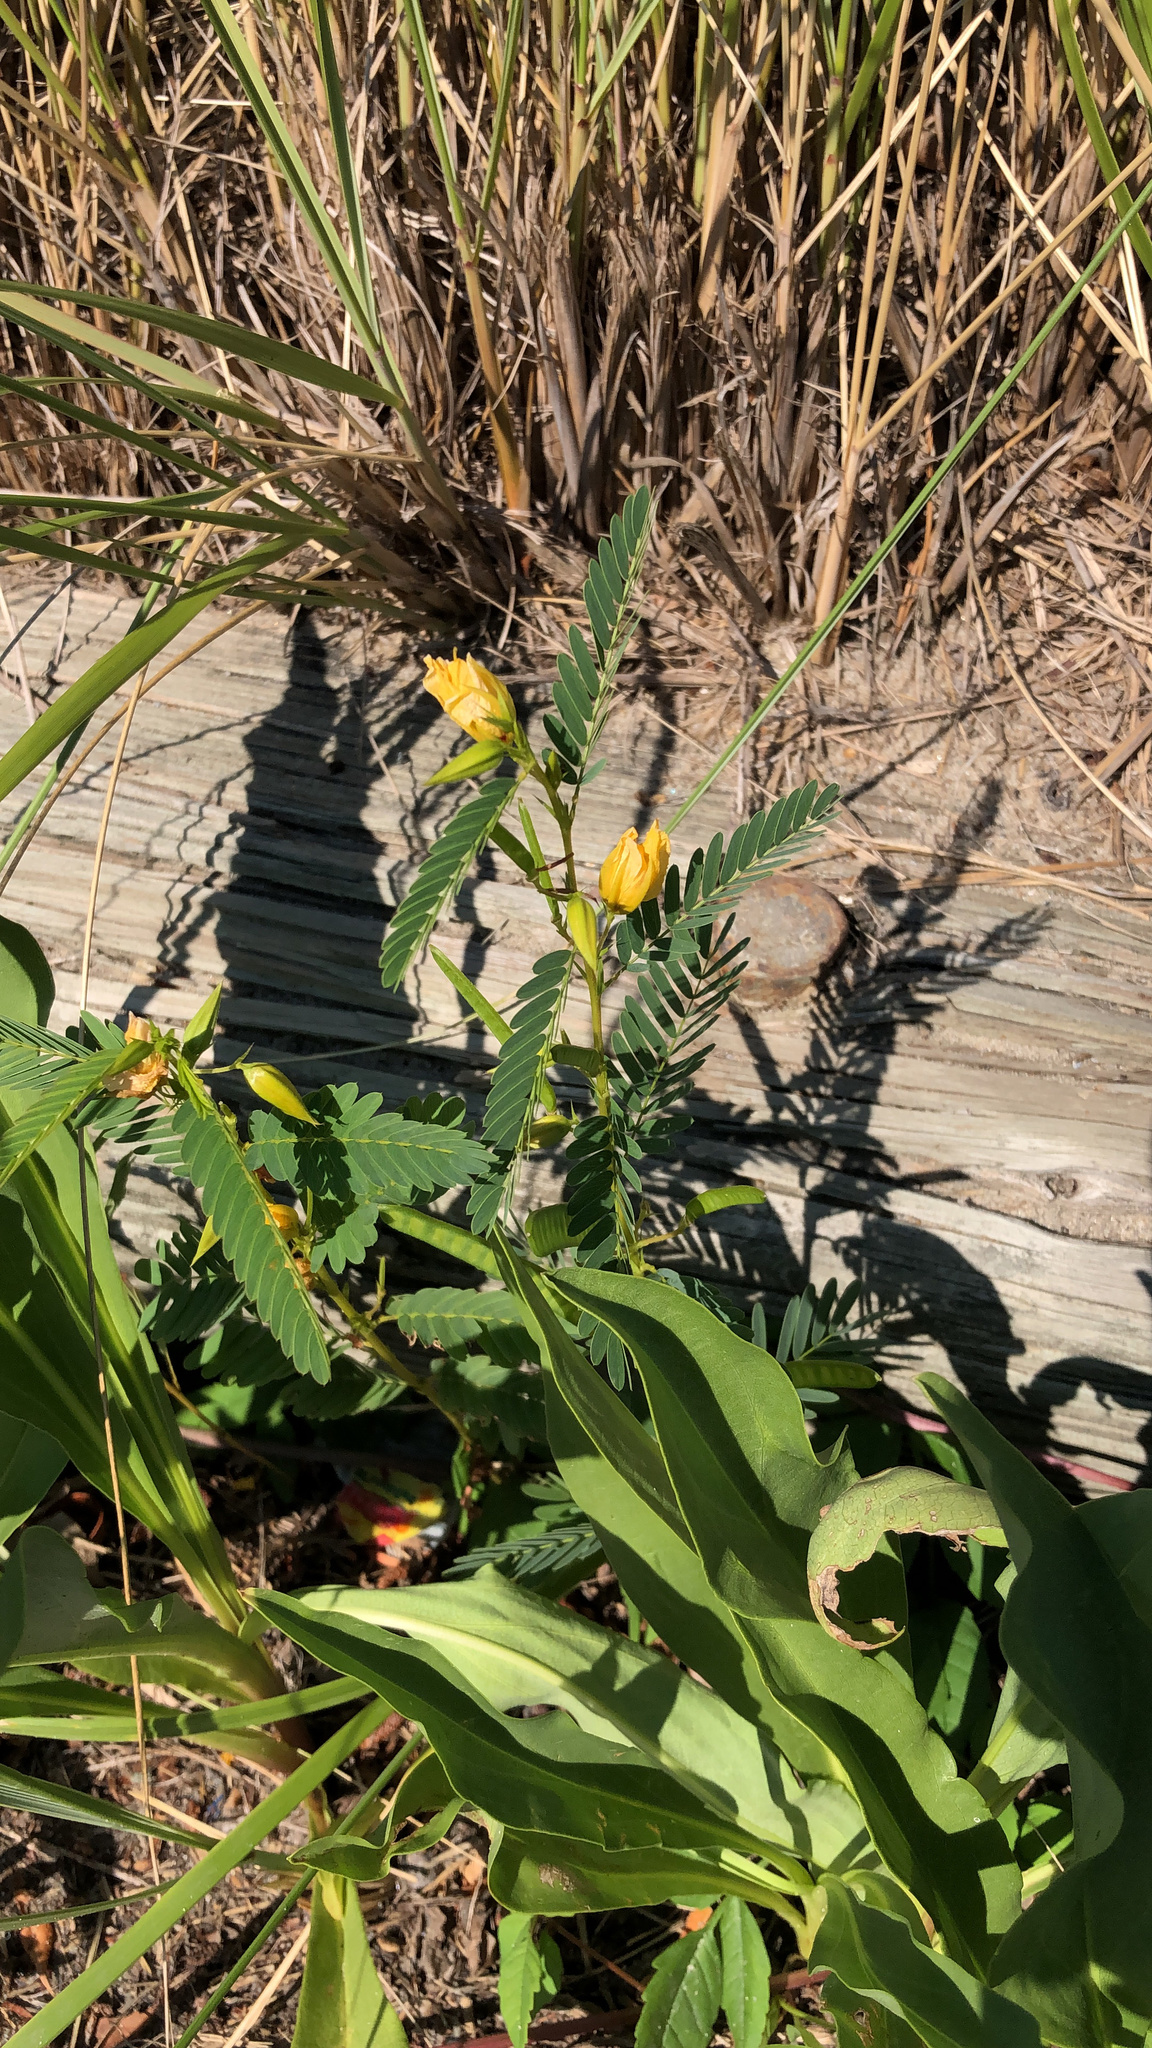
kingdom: Plantae
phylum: Tracheophyta
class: Magnoliopsida
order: Fabales
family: Fabaceae
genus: Chamaecrista
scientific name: Chamaecrista fasciculata
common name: Golden cassia
